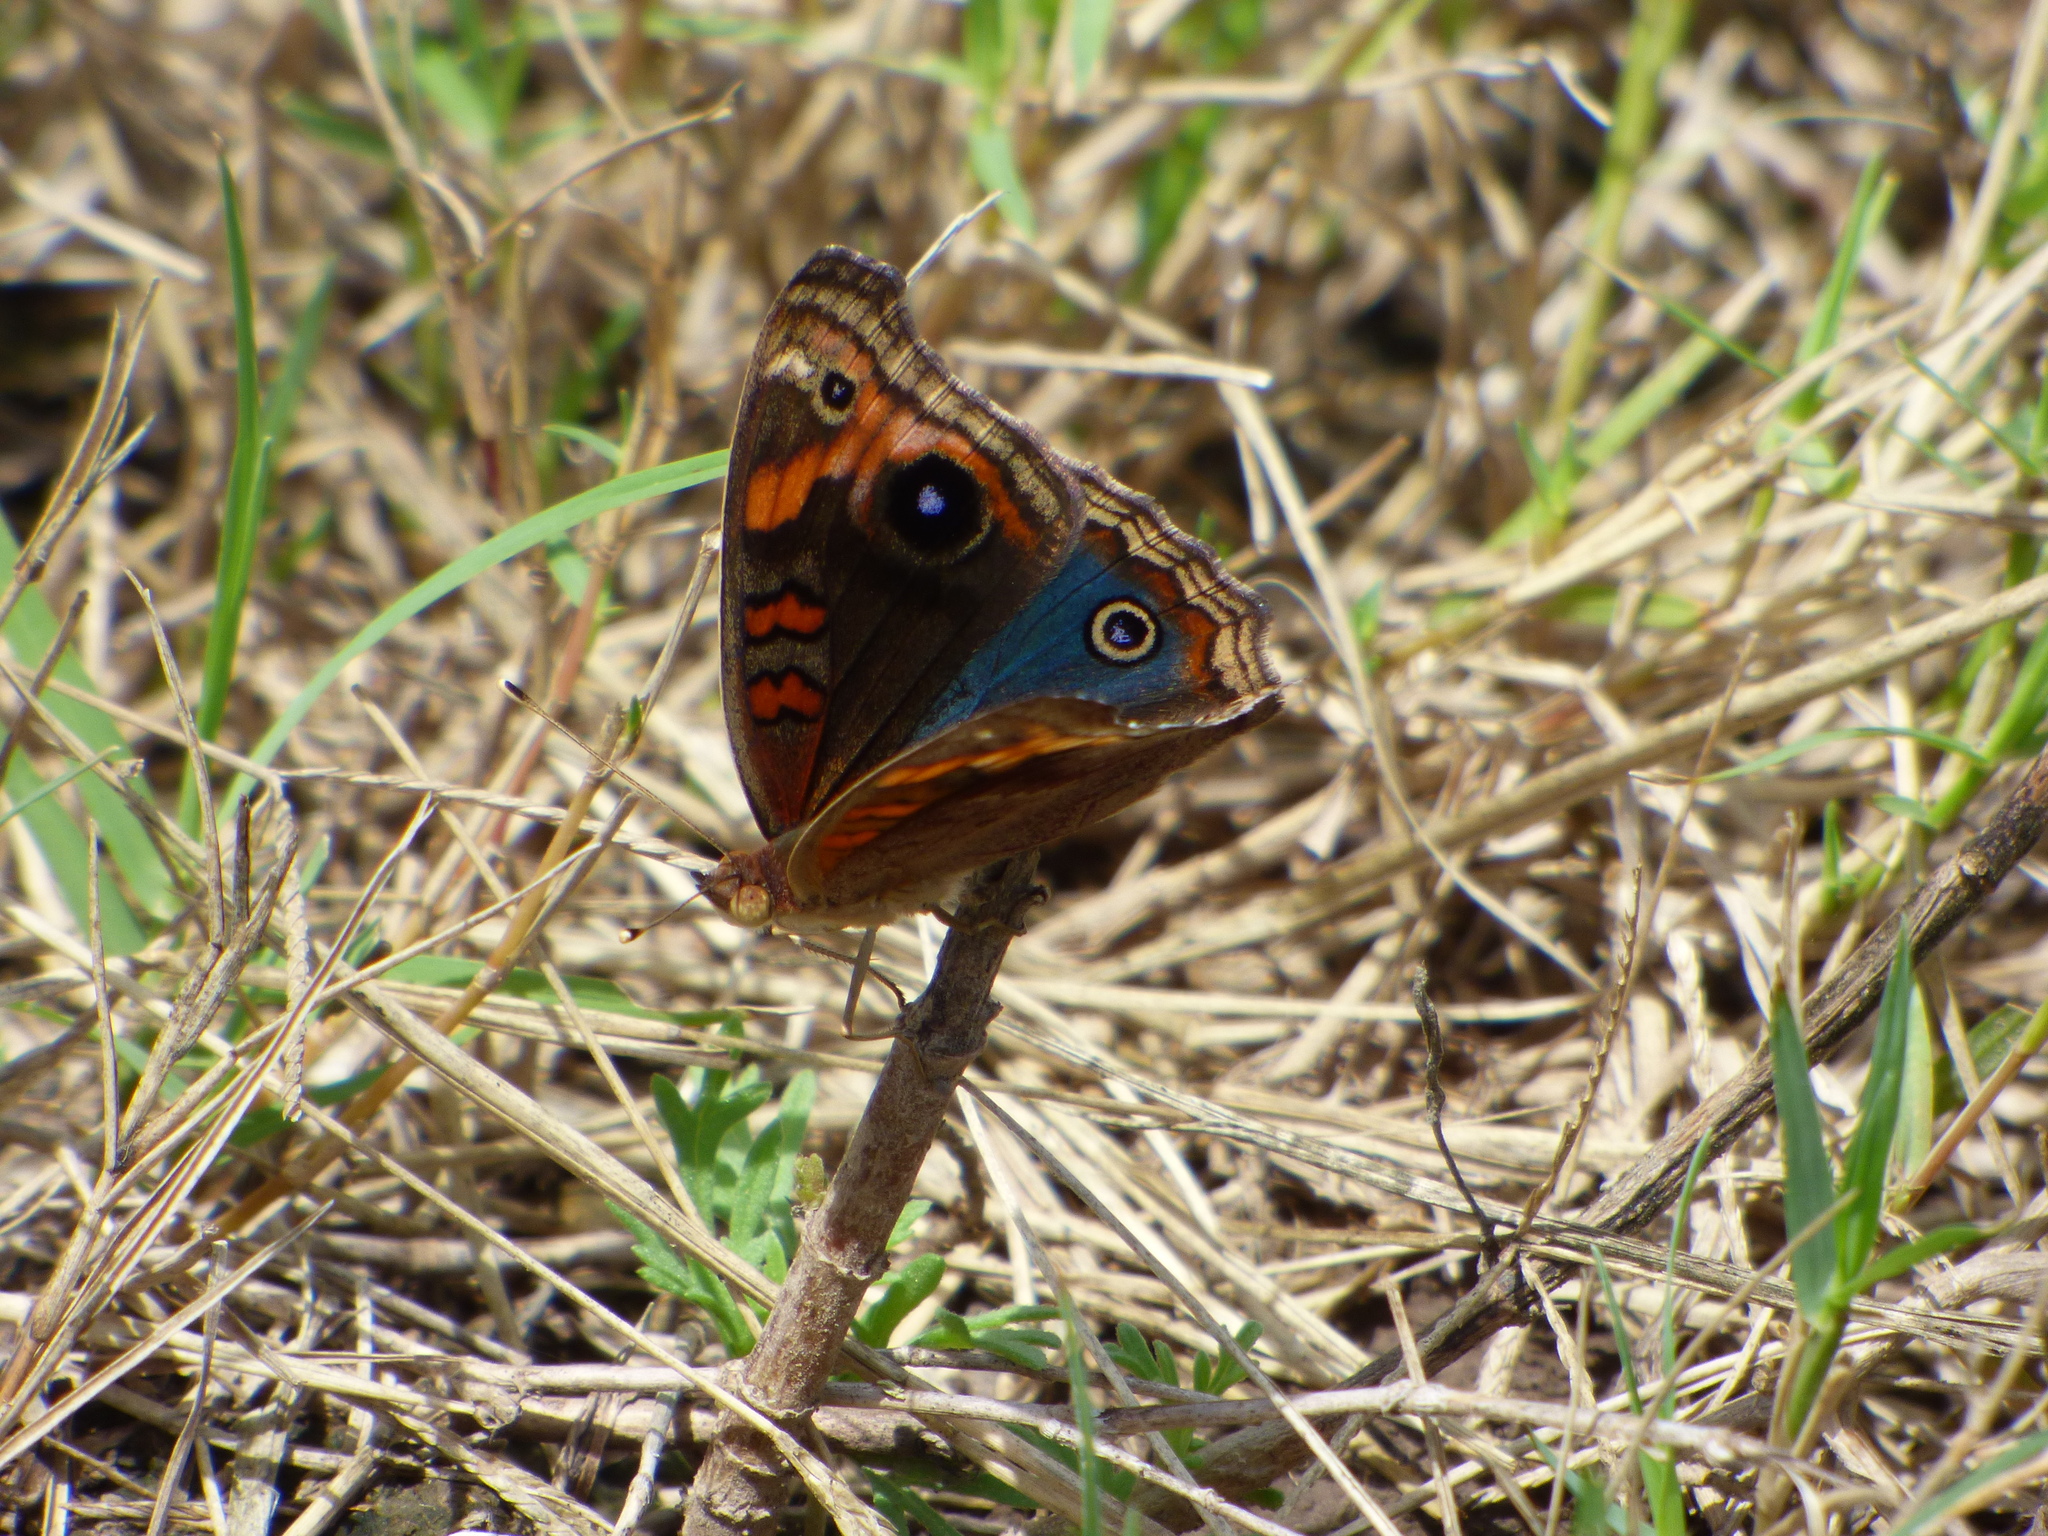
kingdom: Animalia
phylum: Arthropoda
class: Insecta
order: Lepidoptera
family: Nymphalidae
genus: Junonia
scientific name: Junonia lavinia
